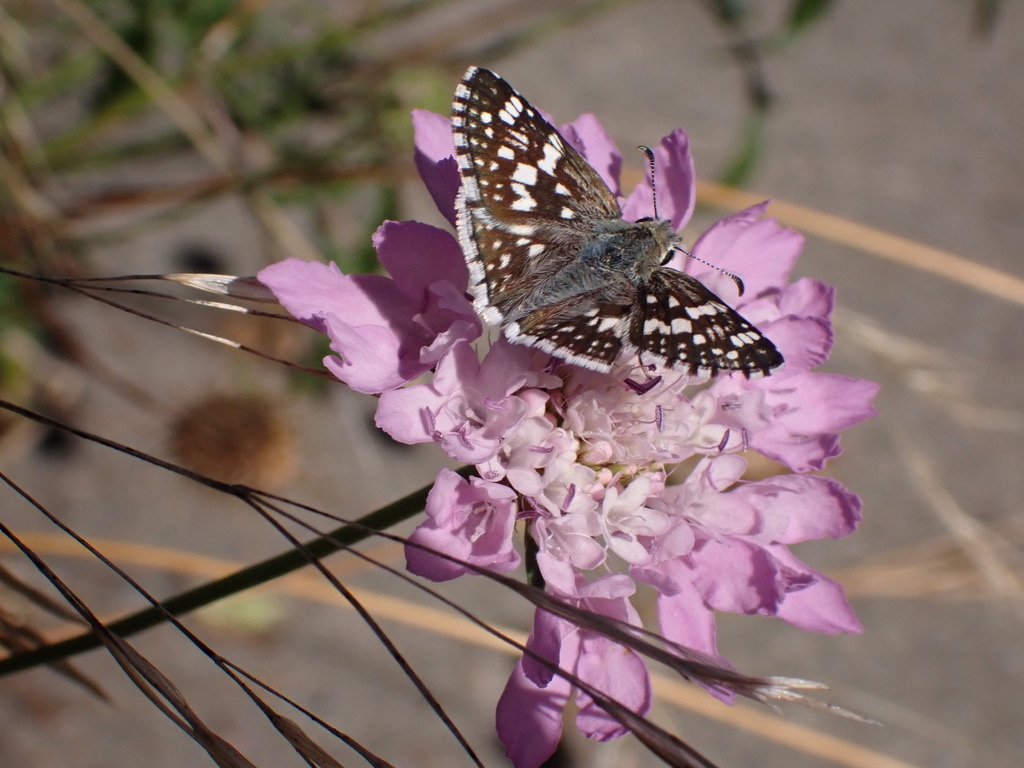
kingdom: Animalia
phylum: Arthropoda
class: Insecta
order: Lepidoptera
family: Hesperiidae
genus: Burnsius
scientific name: Burnsius communis
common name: Common checkered-skipper
